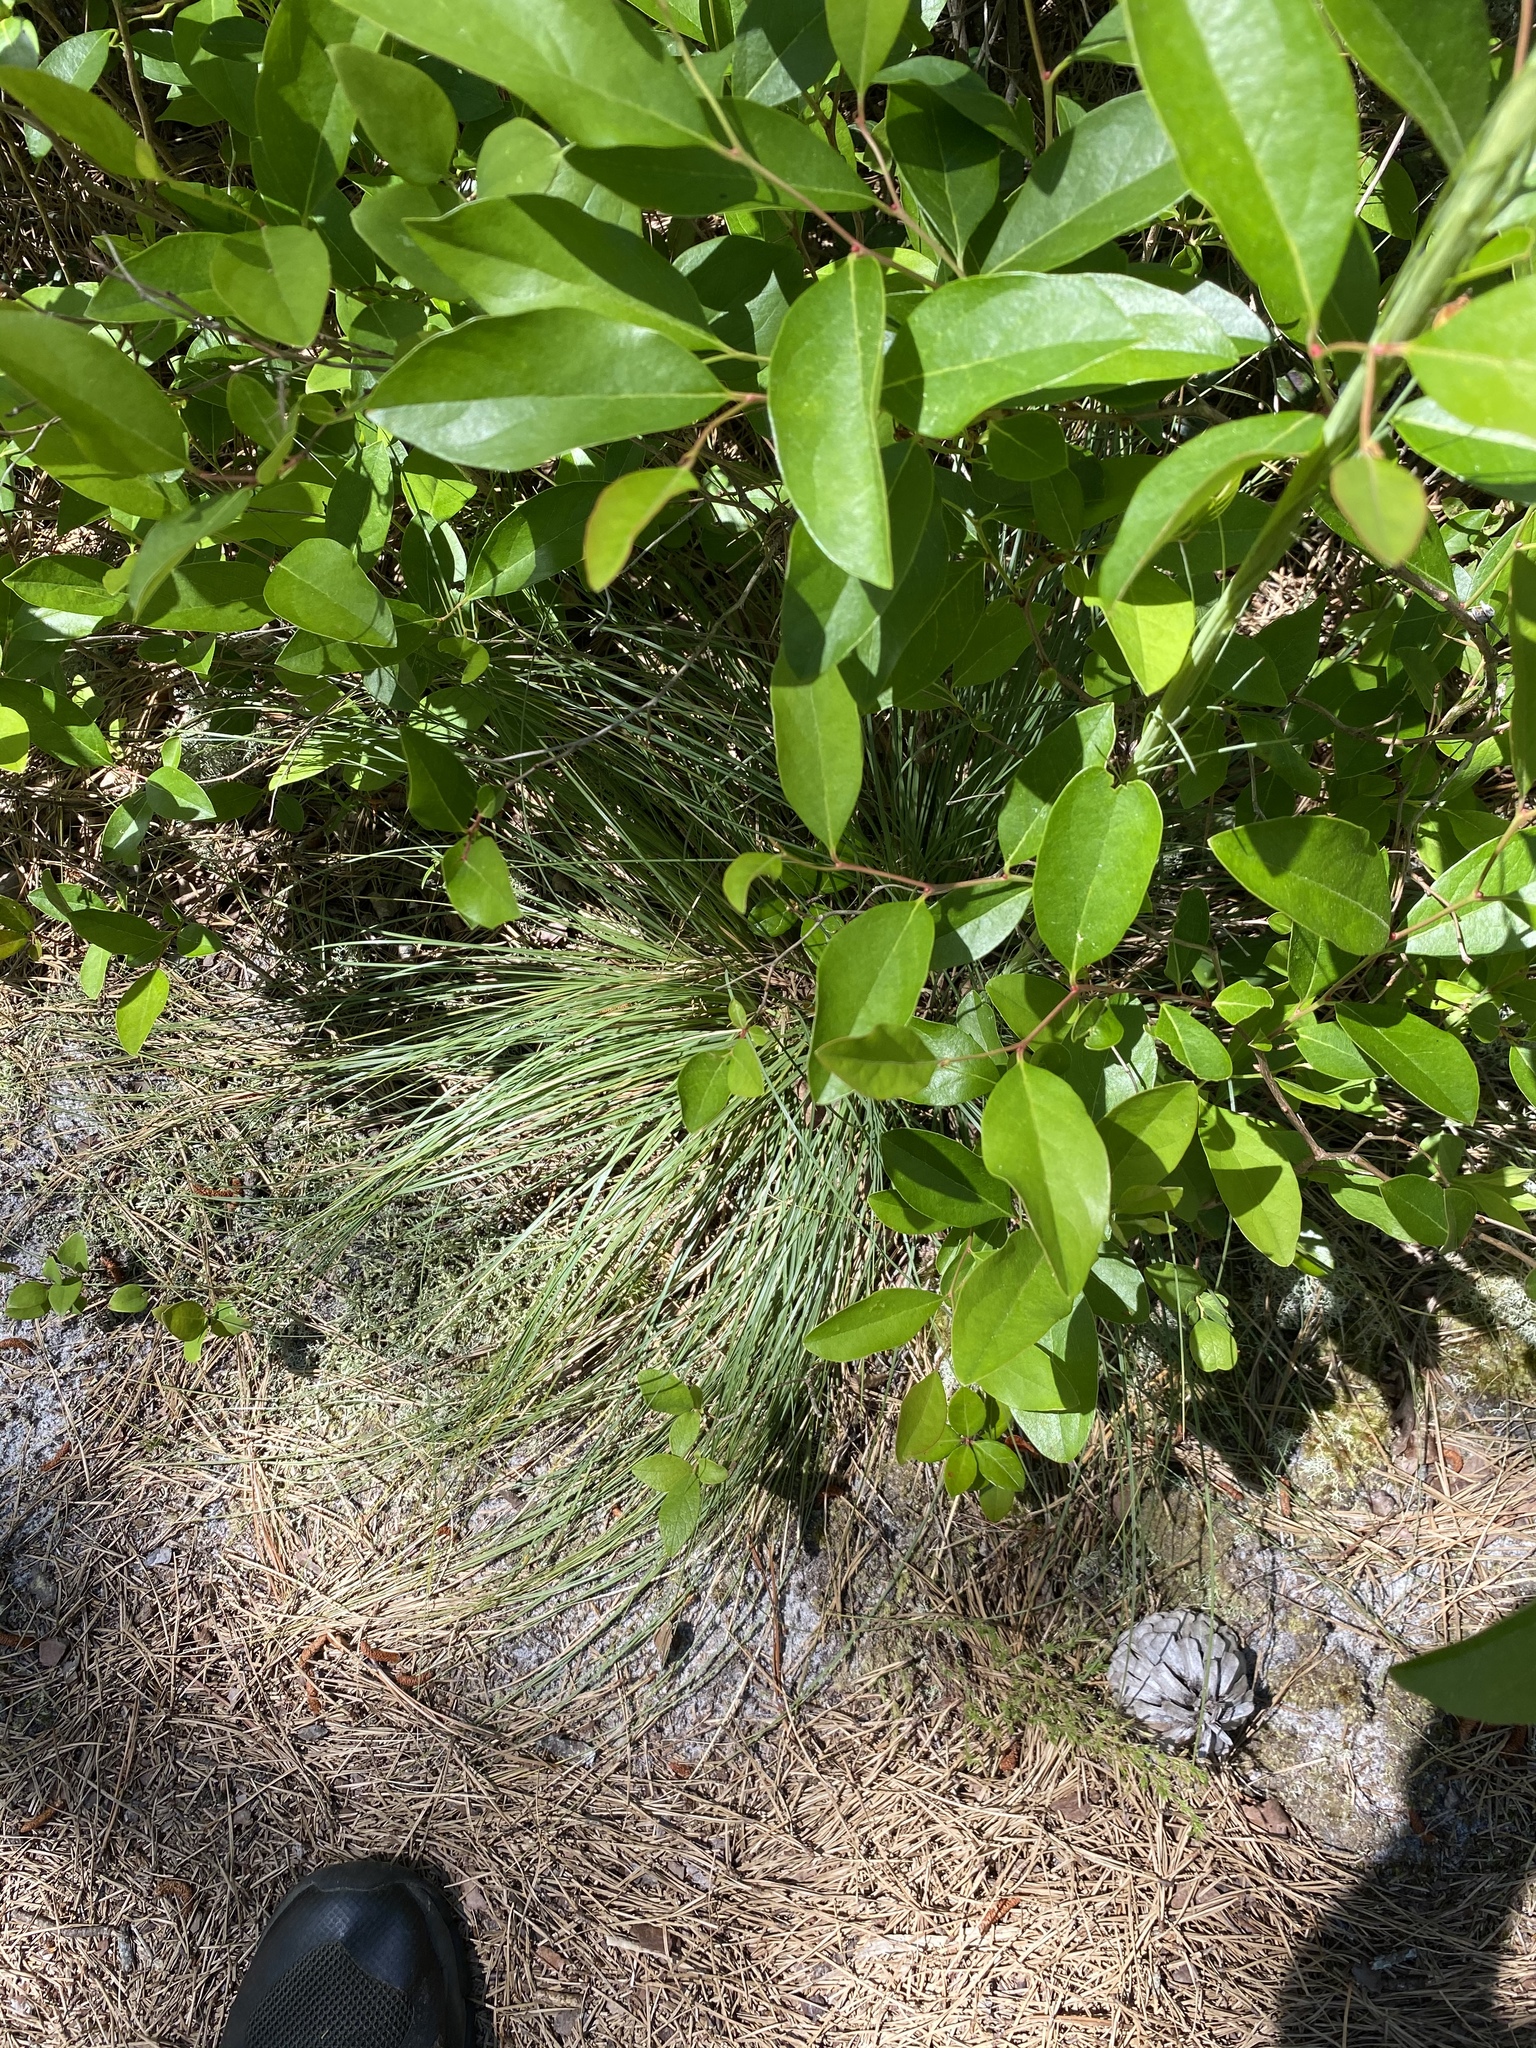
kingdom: Plantae
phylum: Tracheophyta
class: Liliopsida
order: Liliales
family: Melanthiaceae
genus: Xerophyllum
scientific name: Xerophyllum asphodeloides
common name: Mountain-asphodel
